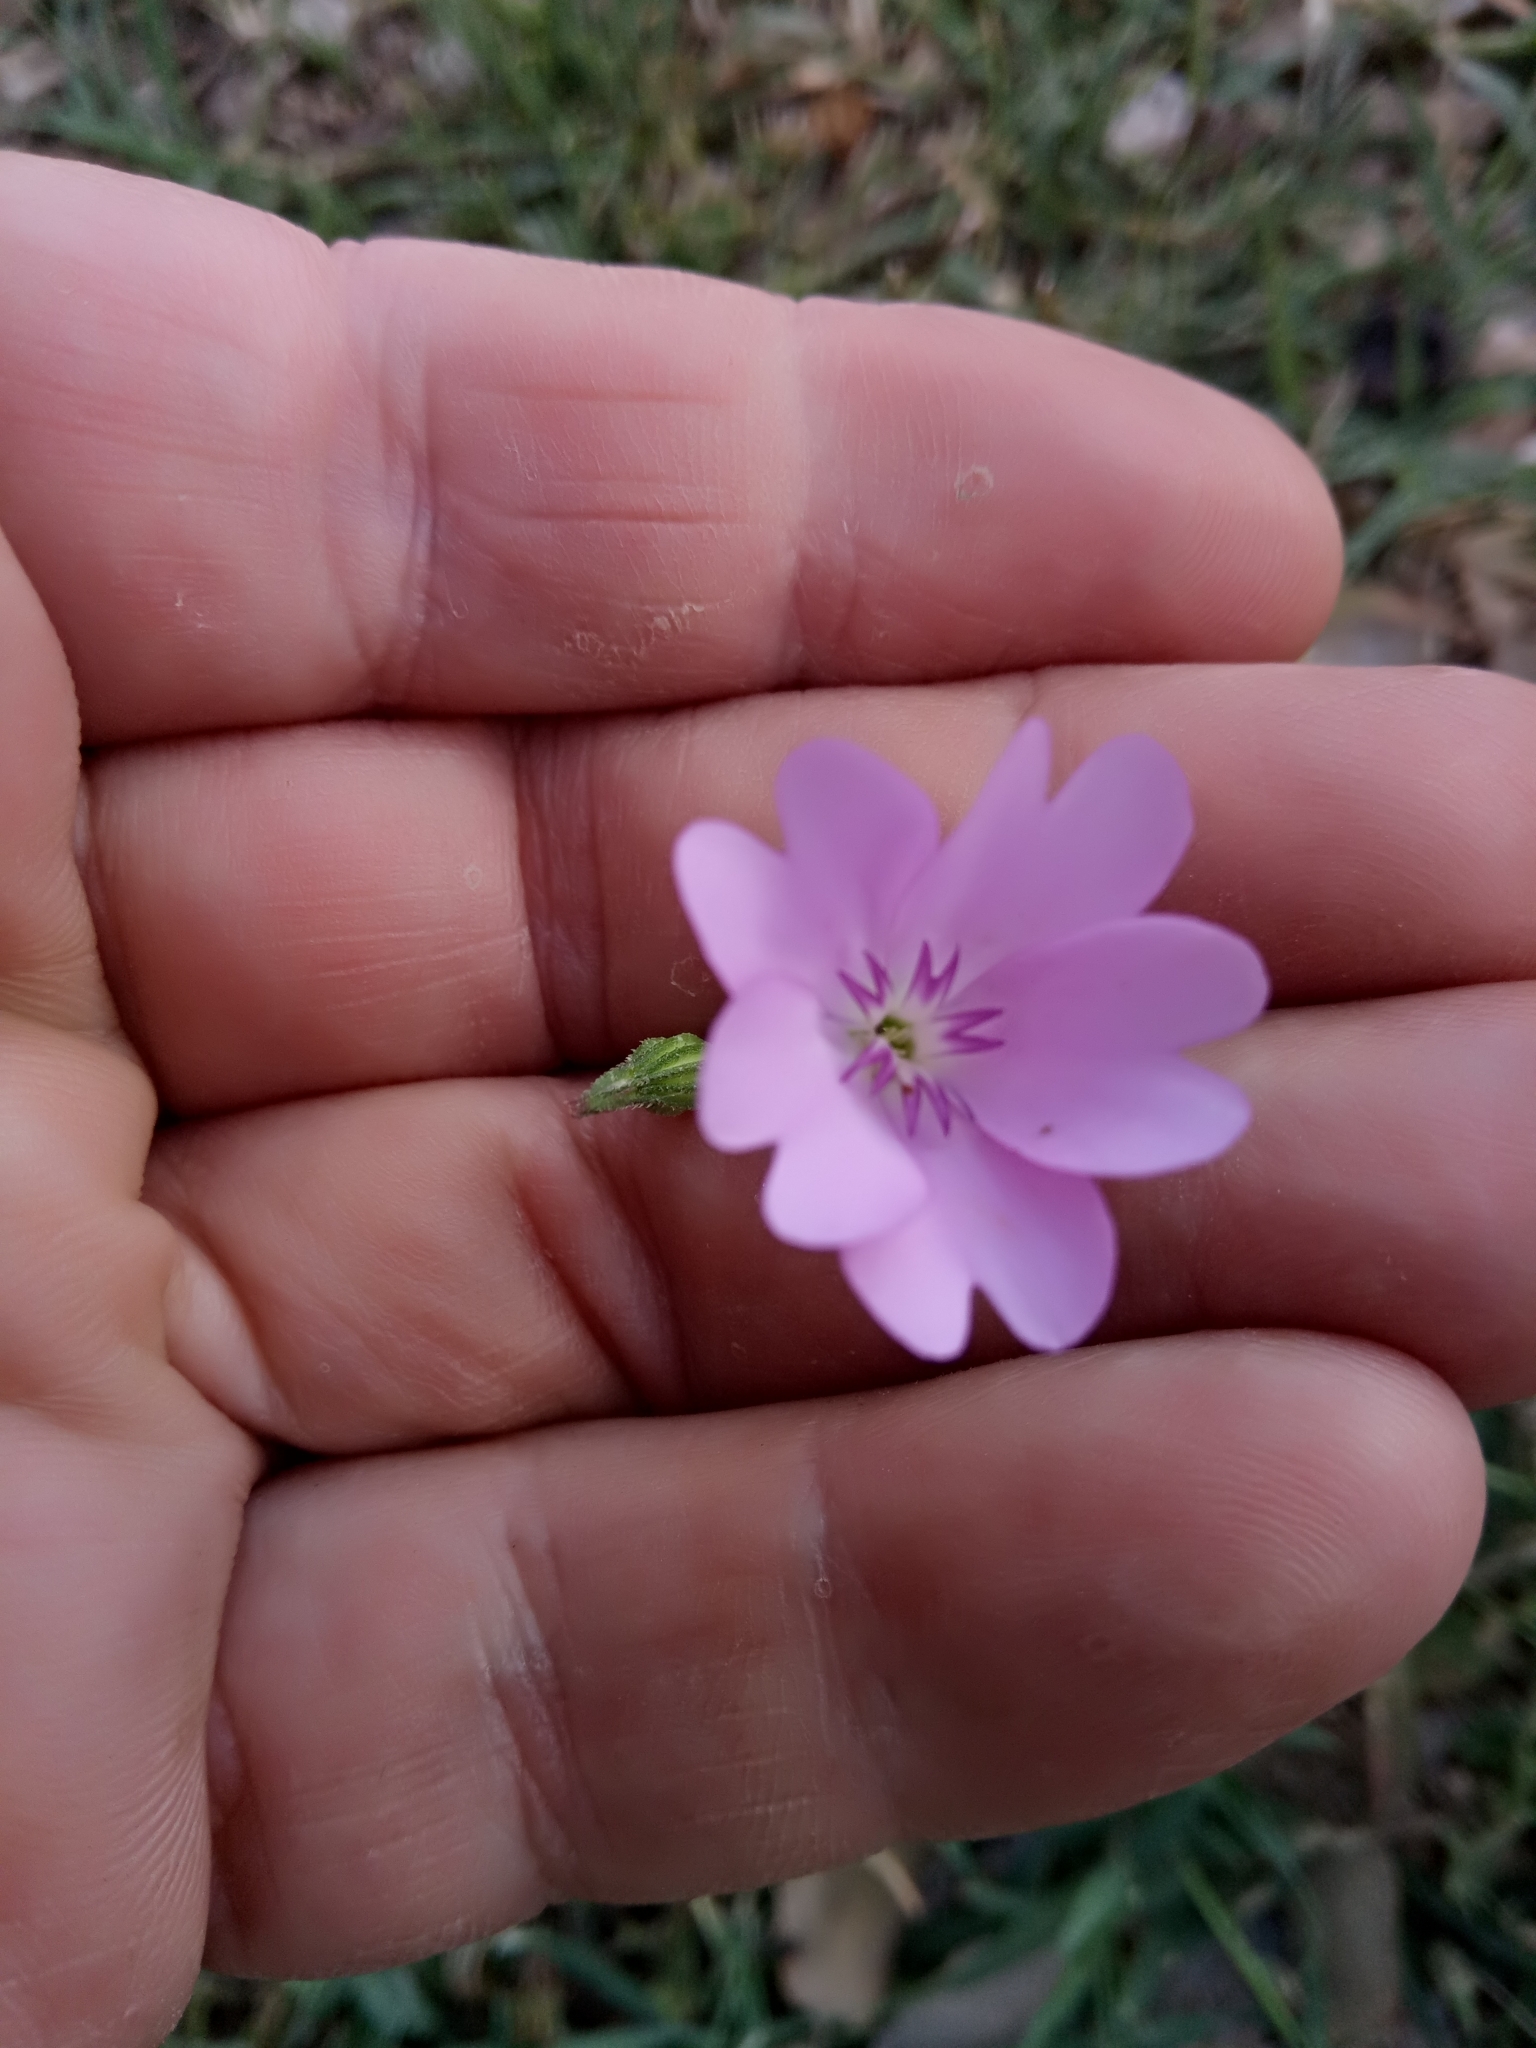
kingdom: Plantae
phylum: Tracheophyta
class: Magnoliopsida
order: Caryophyllales
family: Caryophyllaceae
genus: Eudianthe
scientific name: Eudianthe coeli-rosa
